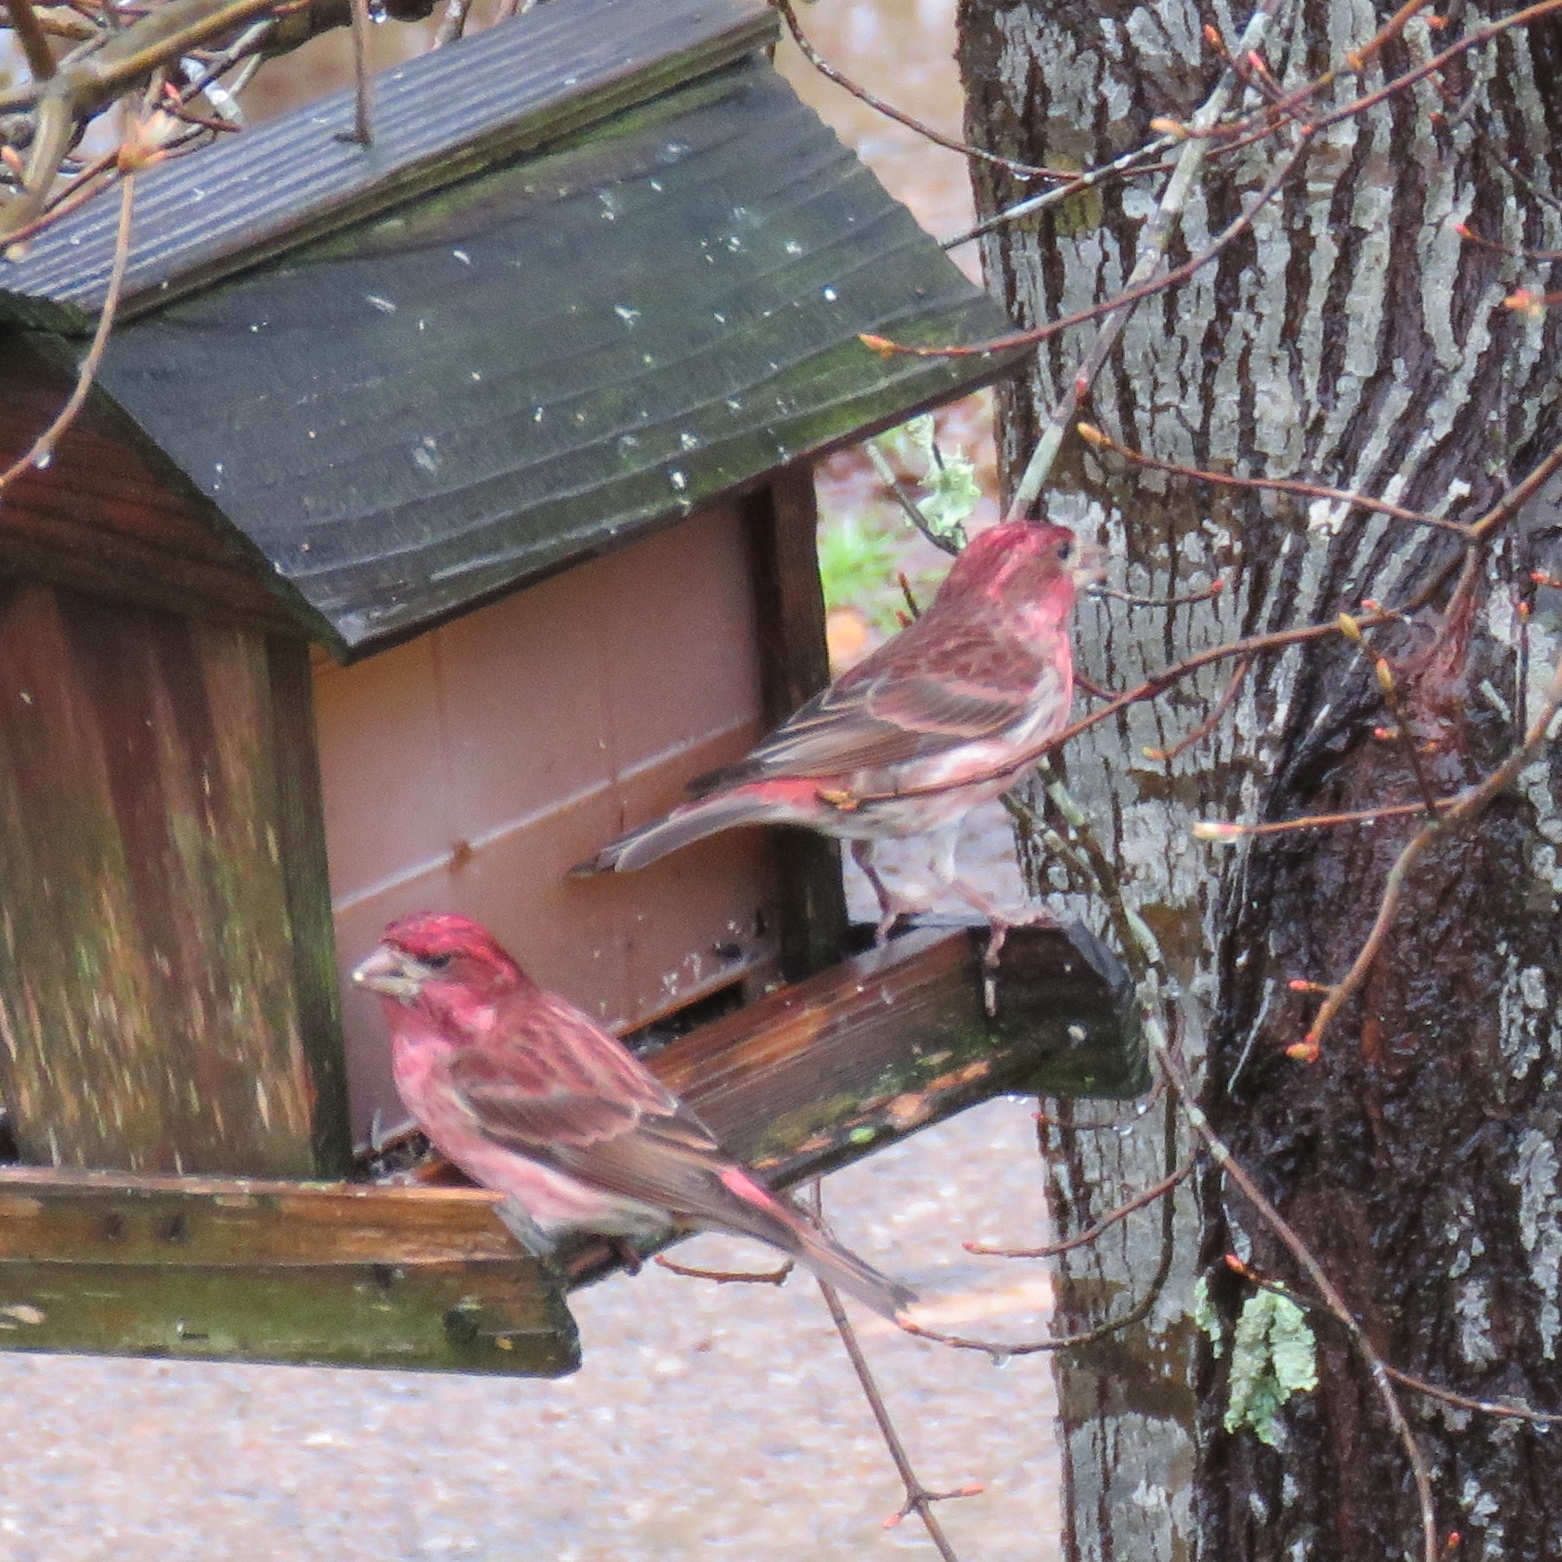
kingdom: Animalia
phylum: Chordata
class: Aves
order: Passeriformes
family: Fringillidae
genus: Haemorhous
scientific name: Haemorhous purpureus
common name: Purple finch
